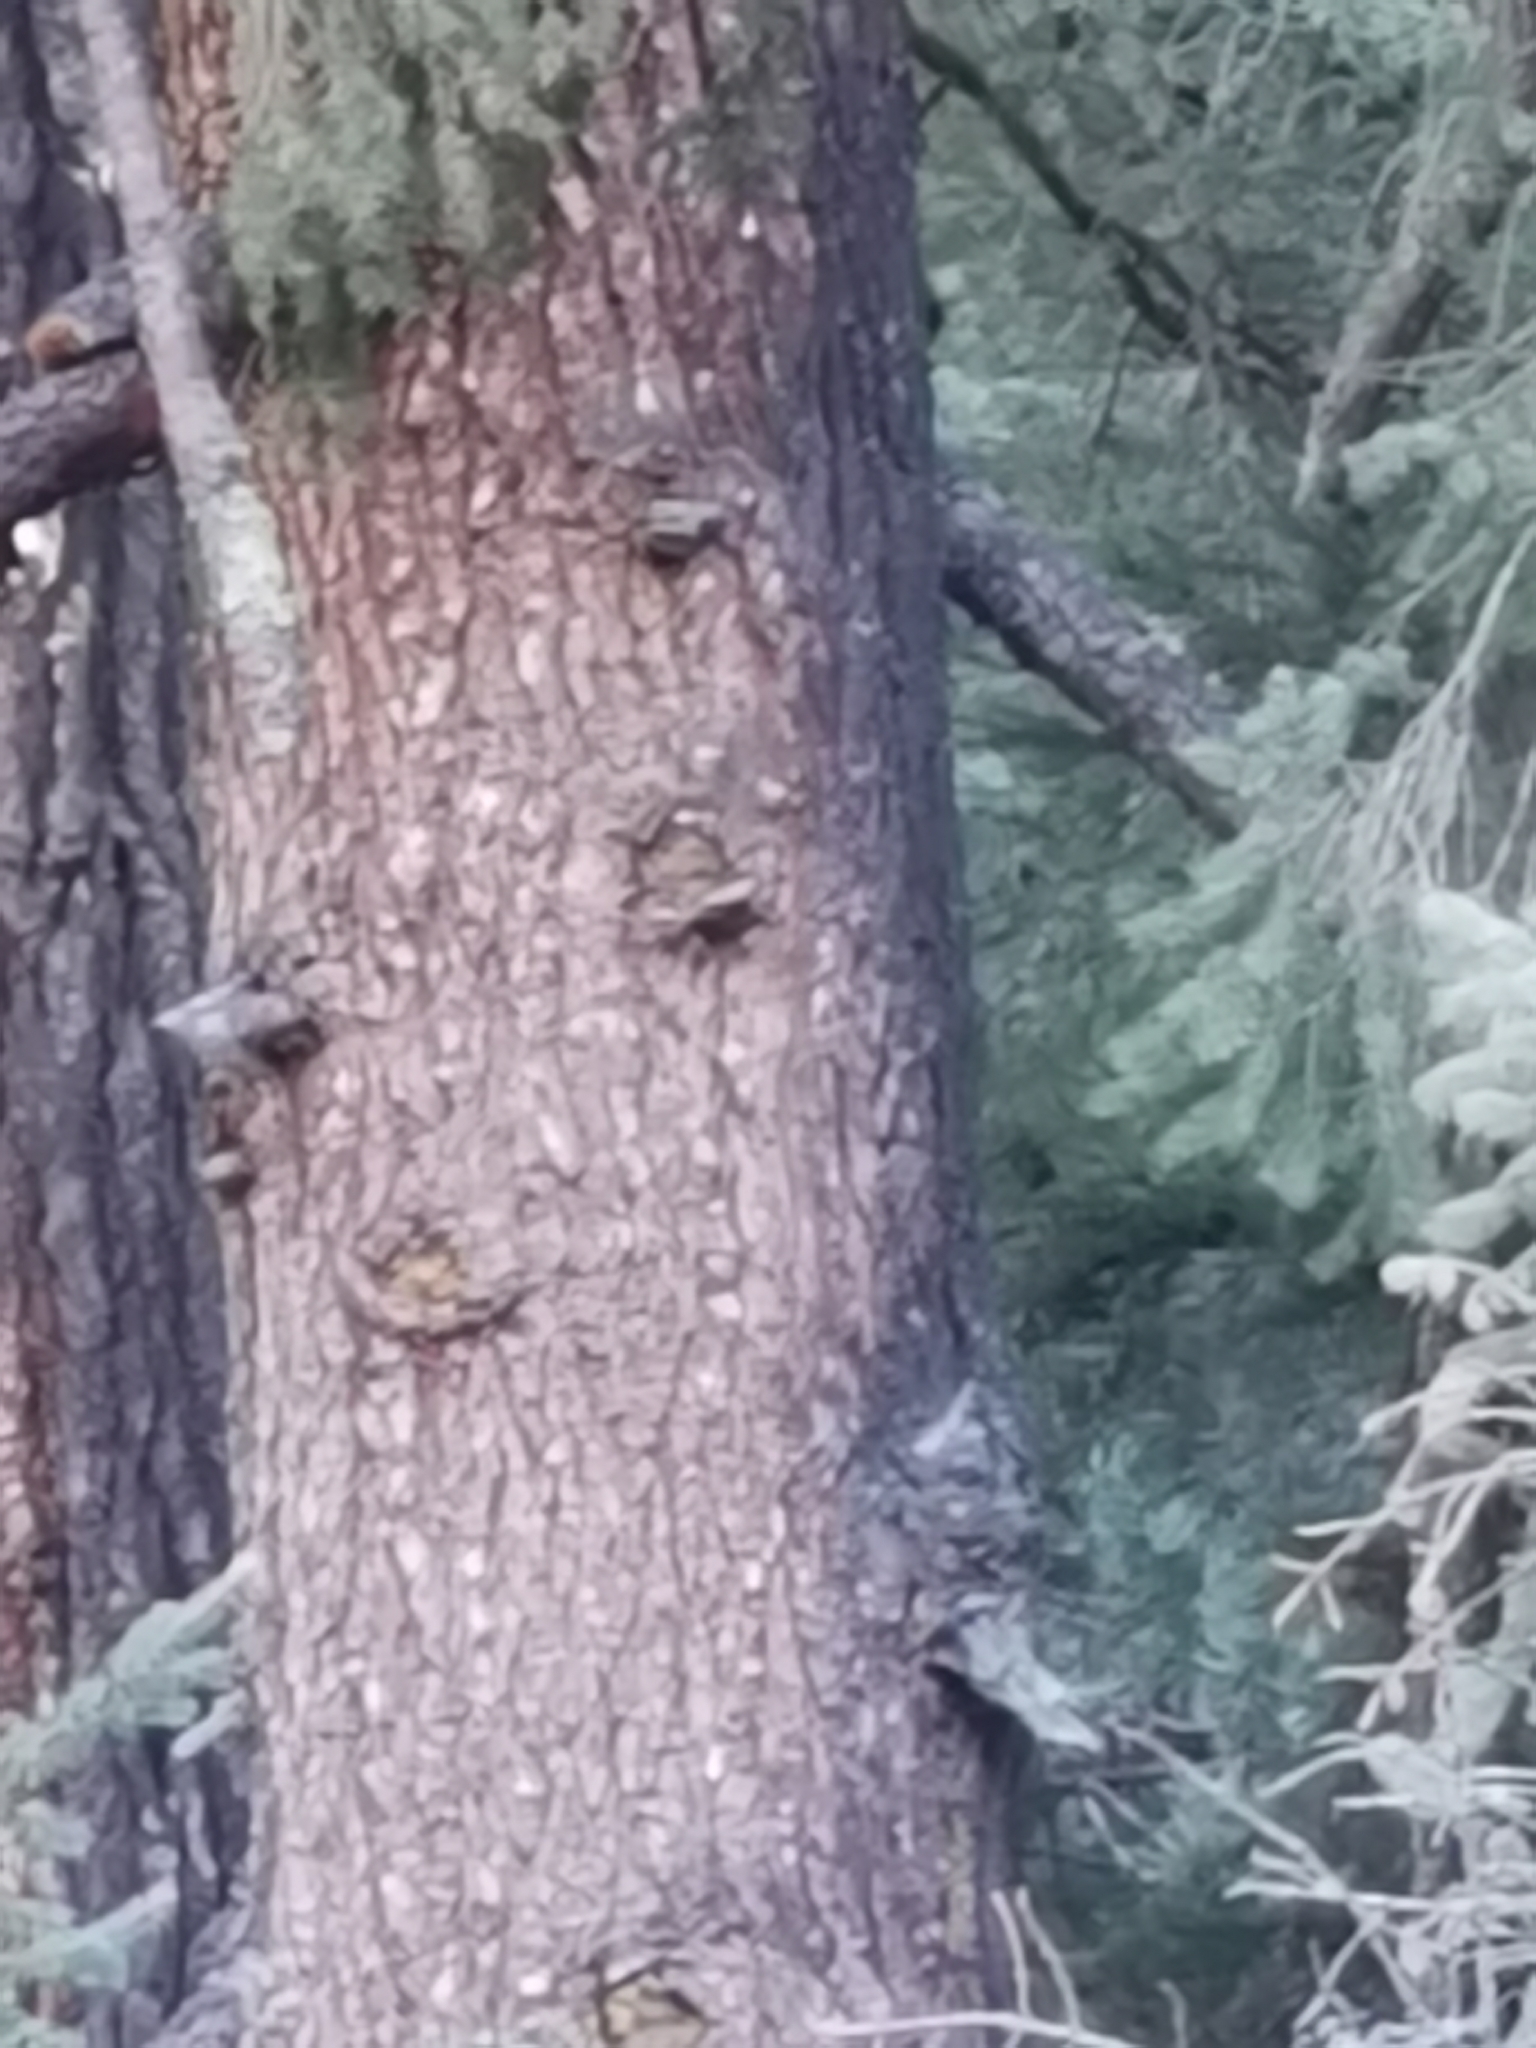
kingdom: Plantae
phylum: Tracheophyta
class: Pinopsida
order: Pinales
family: Pinaceae
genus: Picea
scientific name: Picea chihuahuana
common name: Chihuahua spruce
